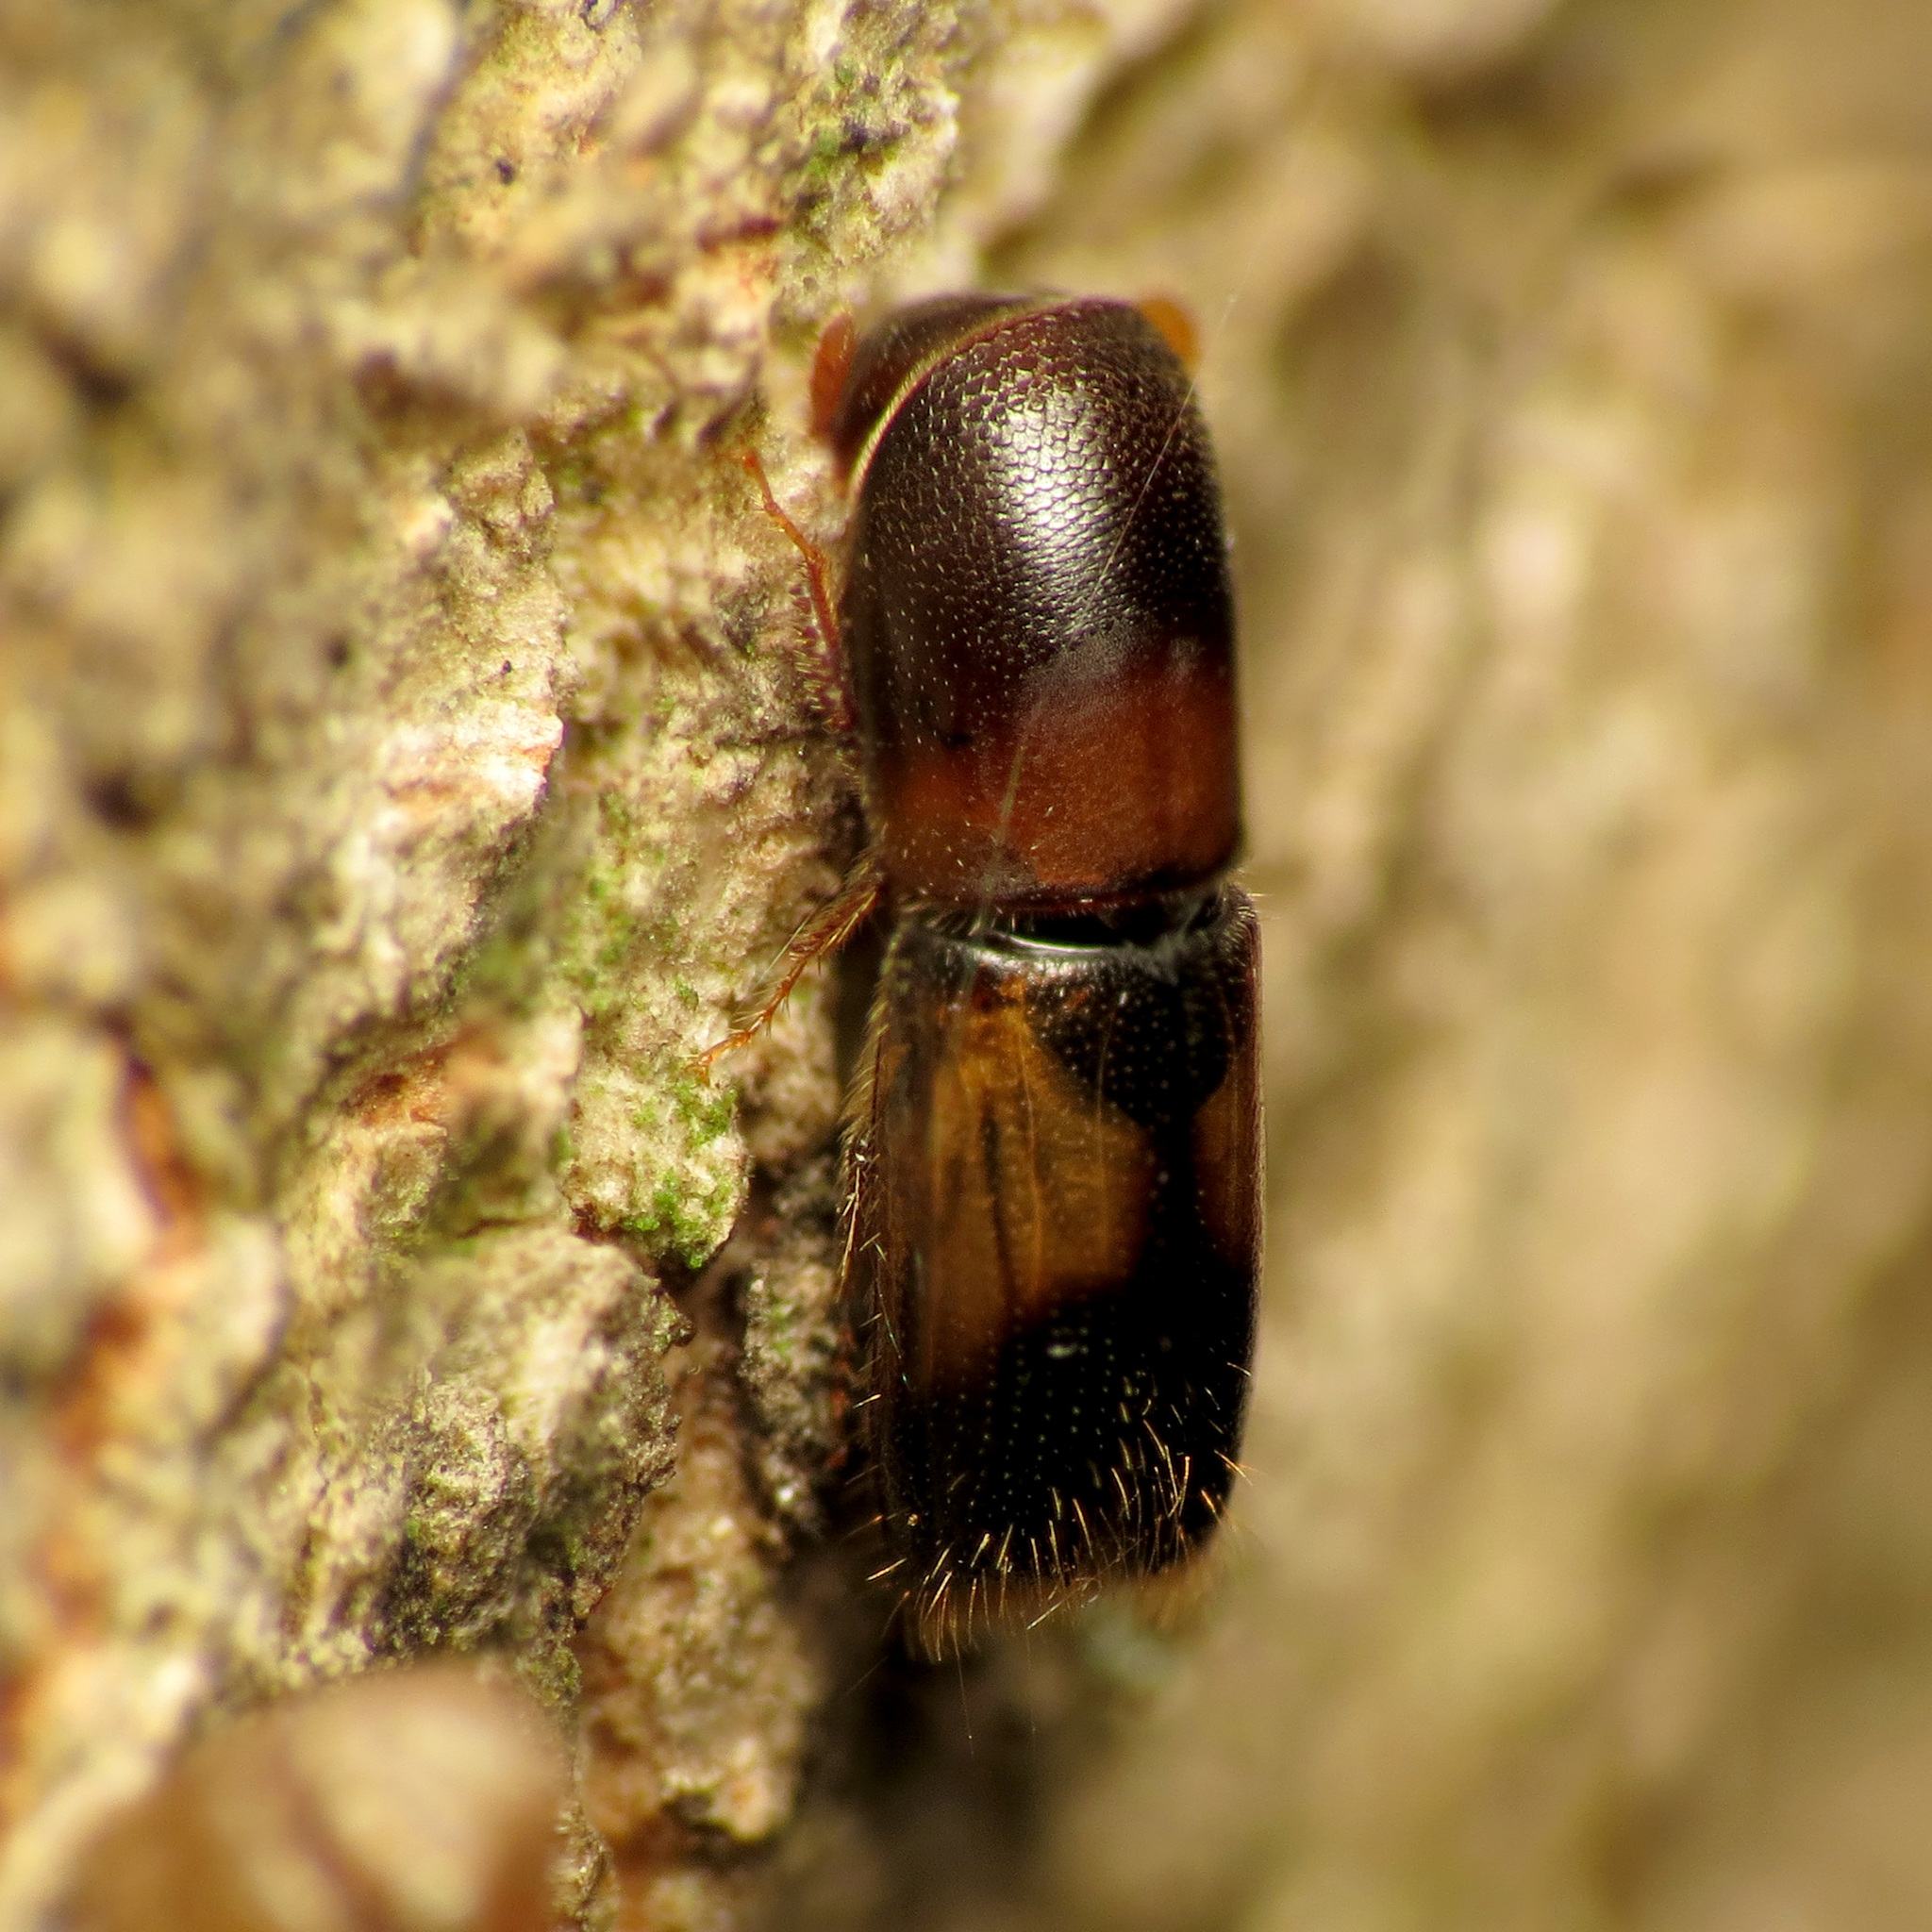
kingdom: Animalia
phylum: Arthropoda
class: Insecta
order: Coleoptera
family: Curculionidae
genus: Monarthrum
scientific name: Monarthrum fasciatum
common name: Yellow-banded timber beetle
